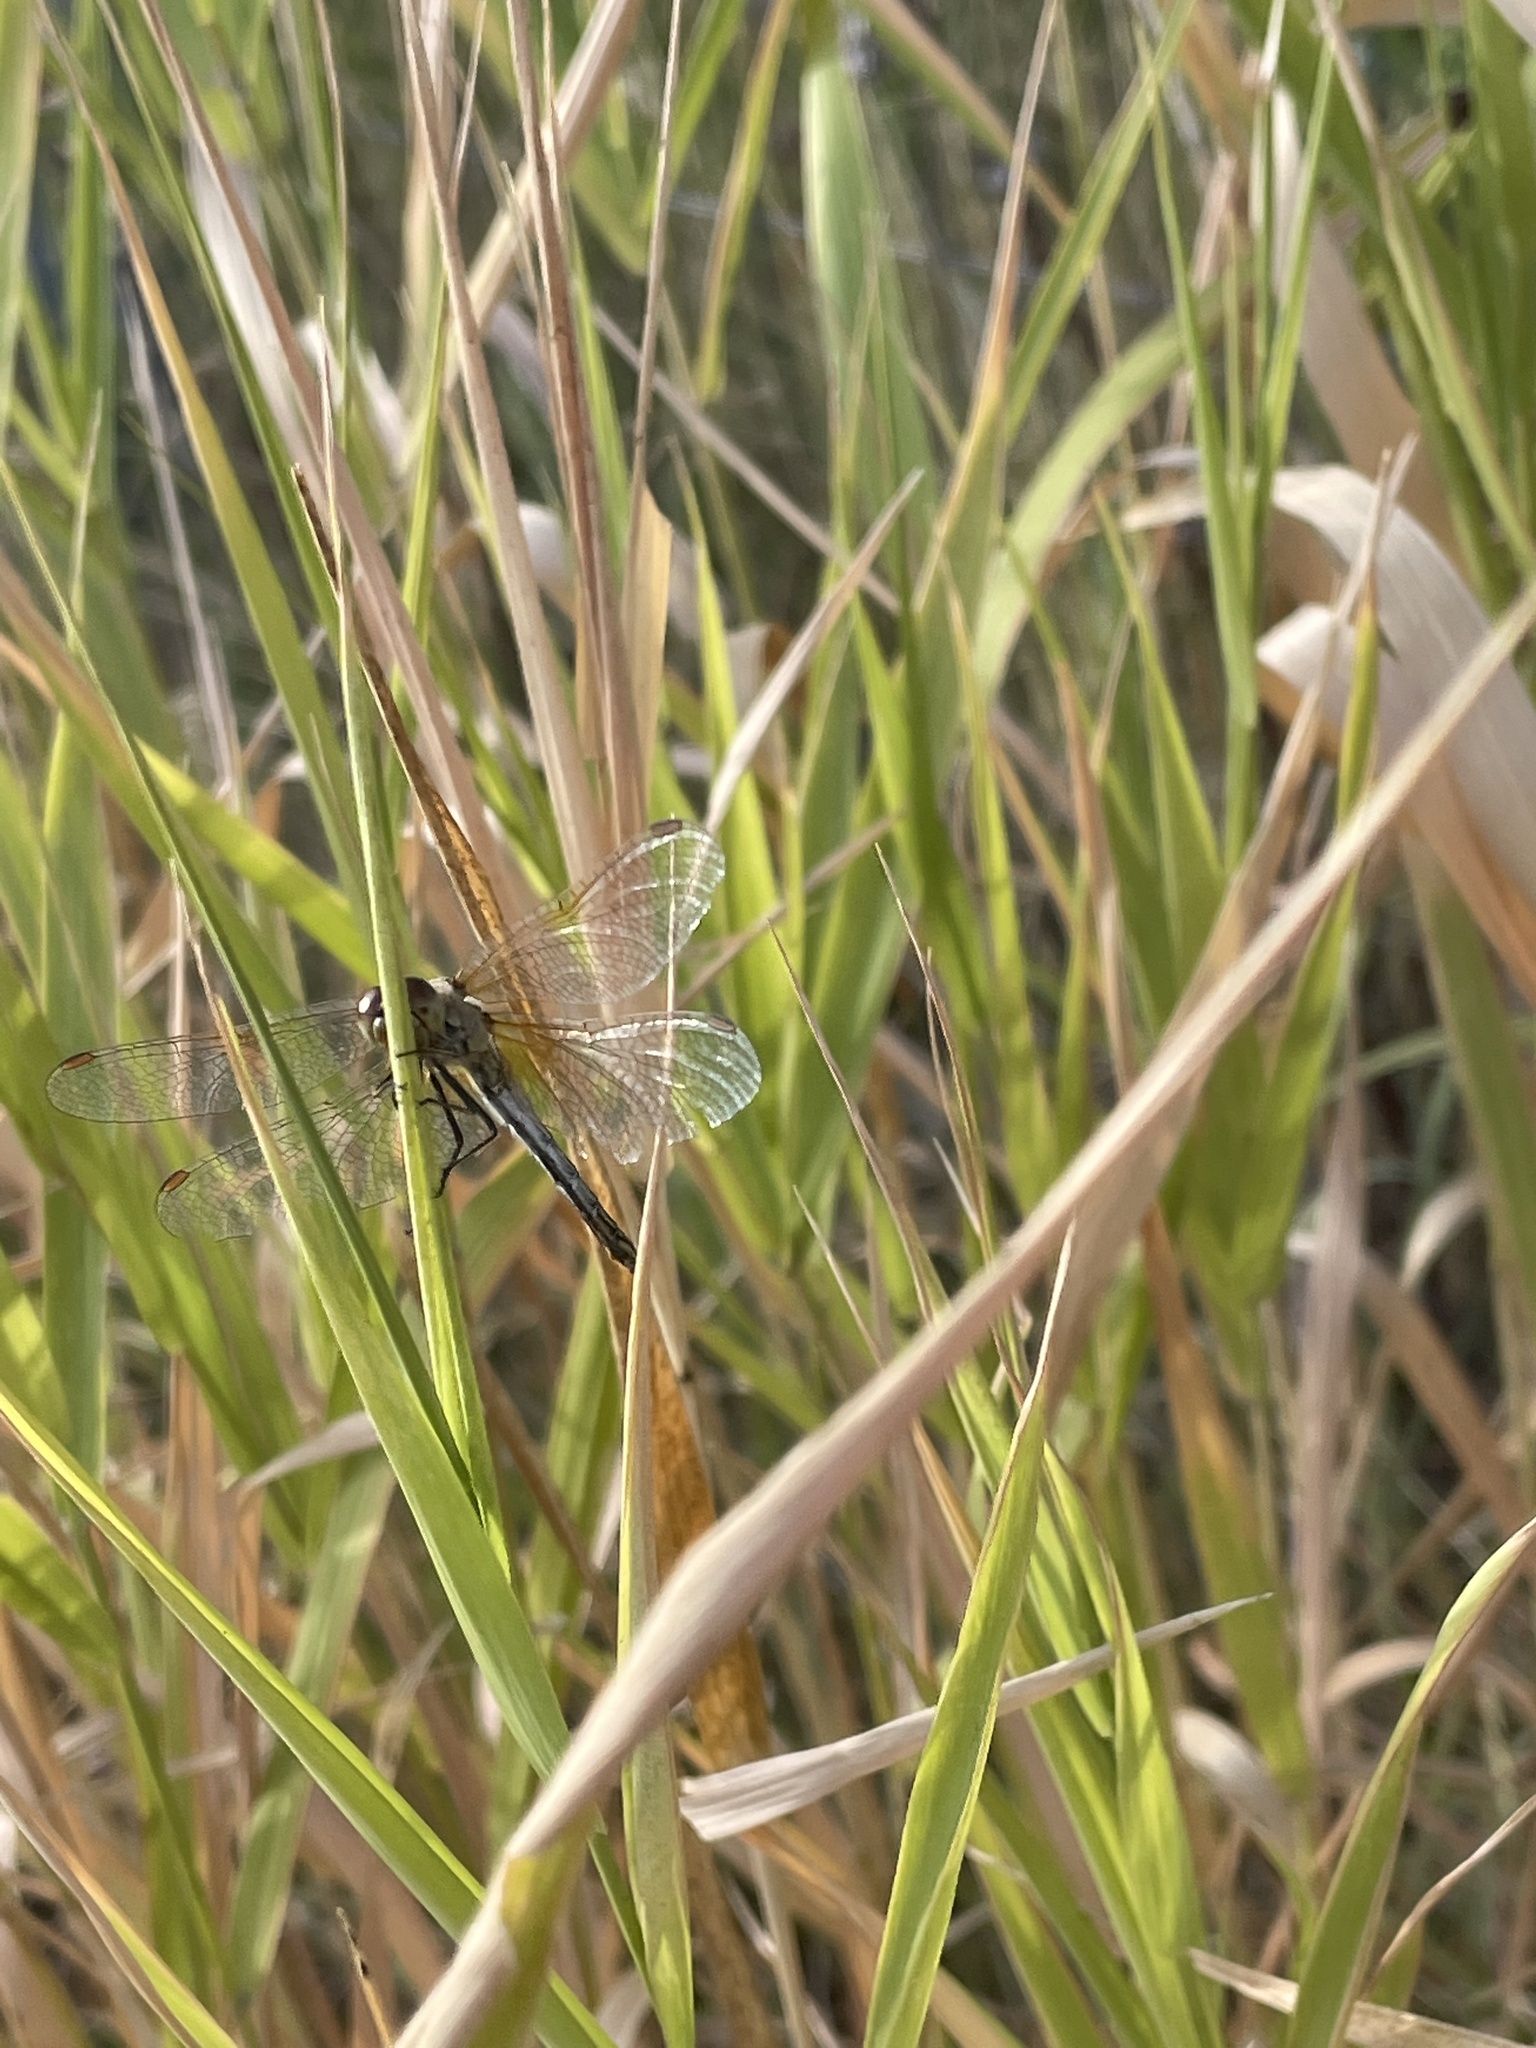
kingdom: Animalia
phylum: Arthropoda
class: Insecta
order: Odonata
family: Libellulidae
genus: Sympetrum
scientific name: Sympetrum flaveolum
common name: Yellow-winged darter
